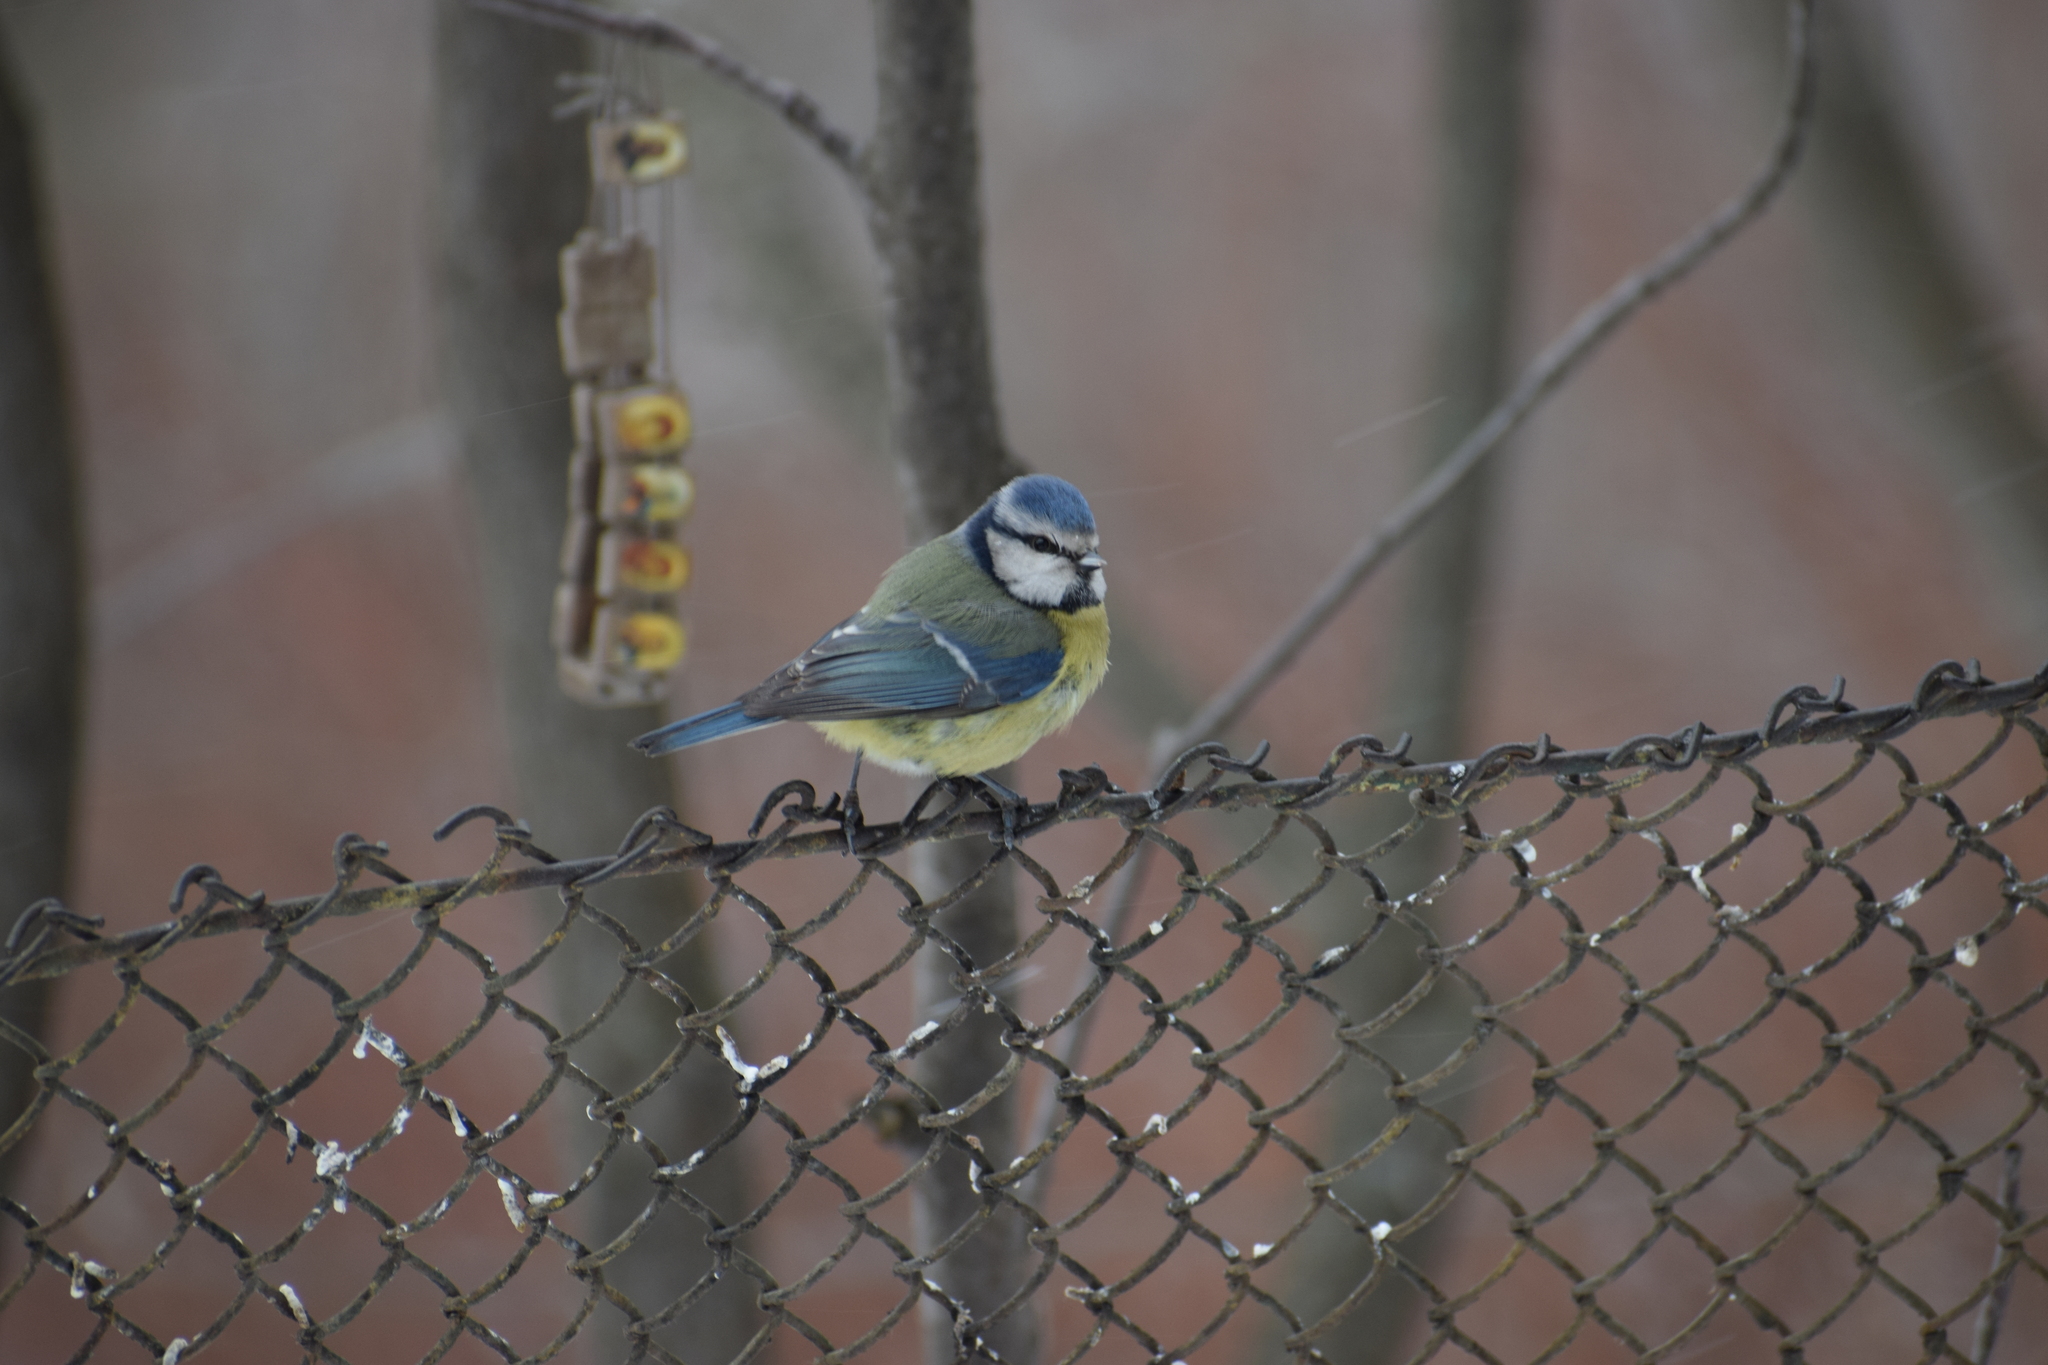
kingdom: Animalia
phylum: Chordata
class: Aves
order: Passeriformes
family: Paridae
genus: Cyanistes
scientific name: Cyanistes caeruleus
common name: Eurasian blue tit
